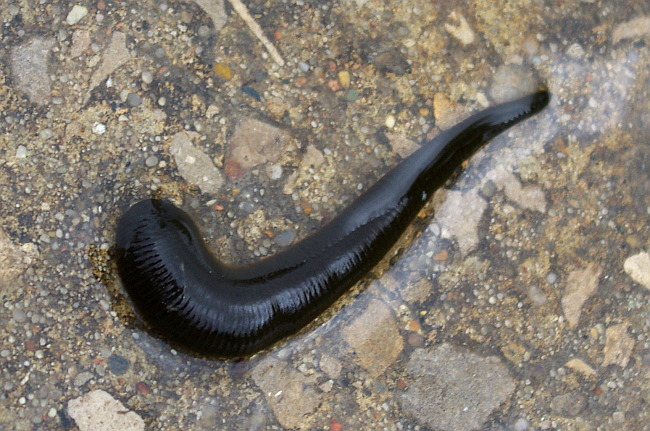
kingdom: Animalia
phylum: Annelida
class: Clitellata
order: Arhynchobdellida
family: Haemopidae
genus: Haemopis
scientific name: Haemopis sanguisuga
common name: Horse leech
